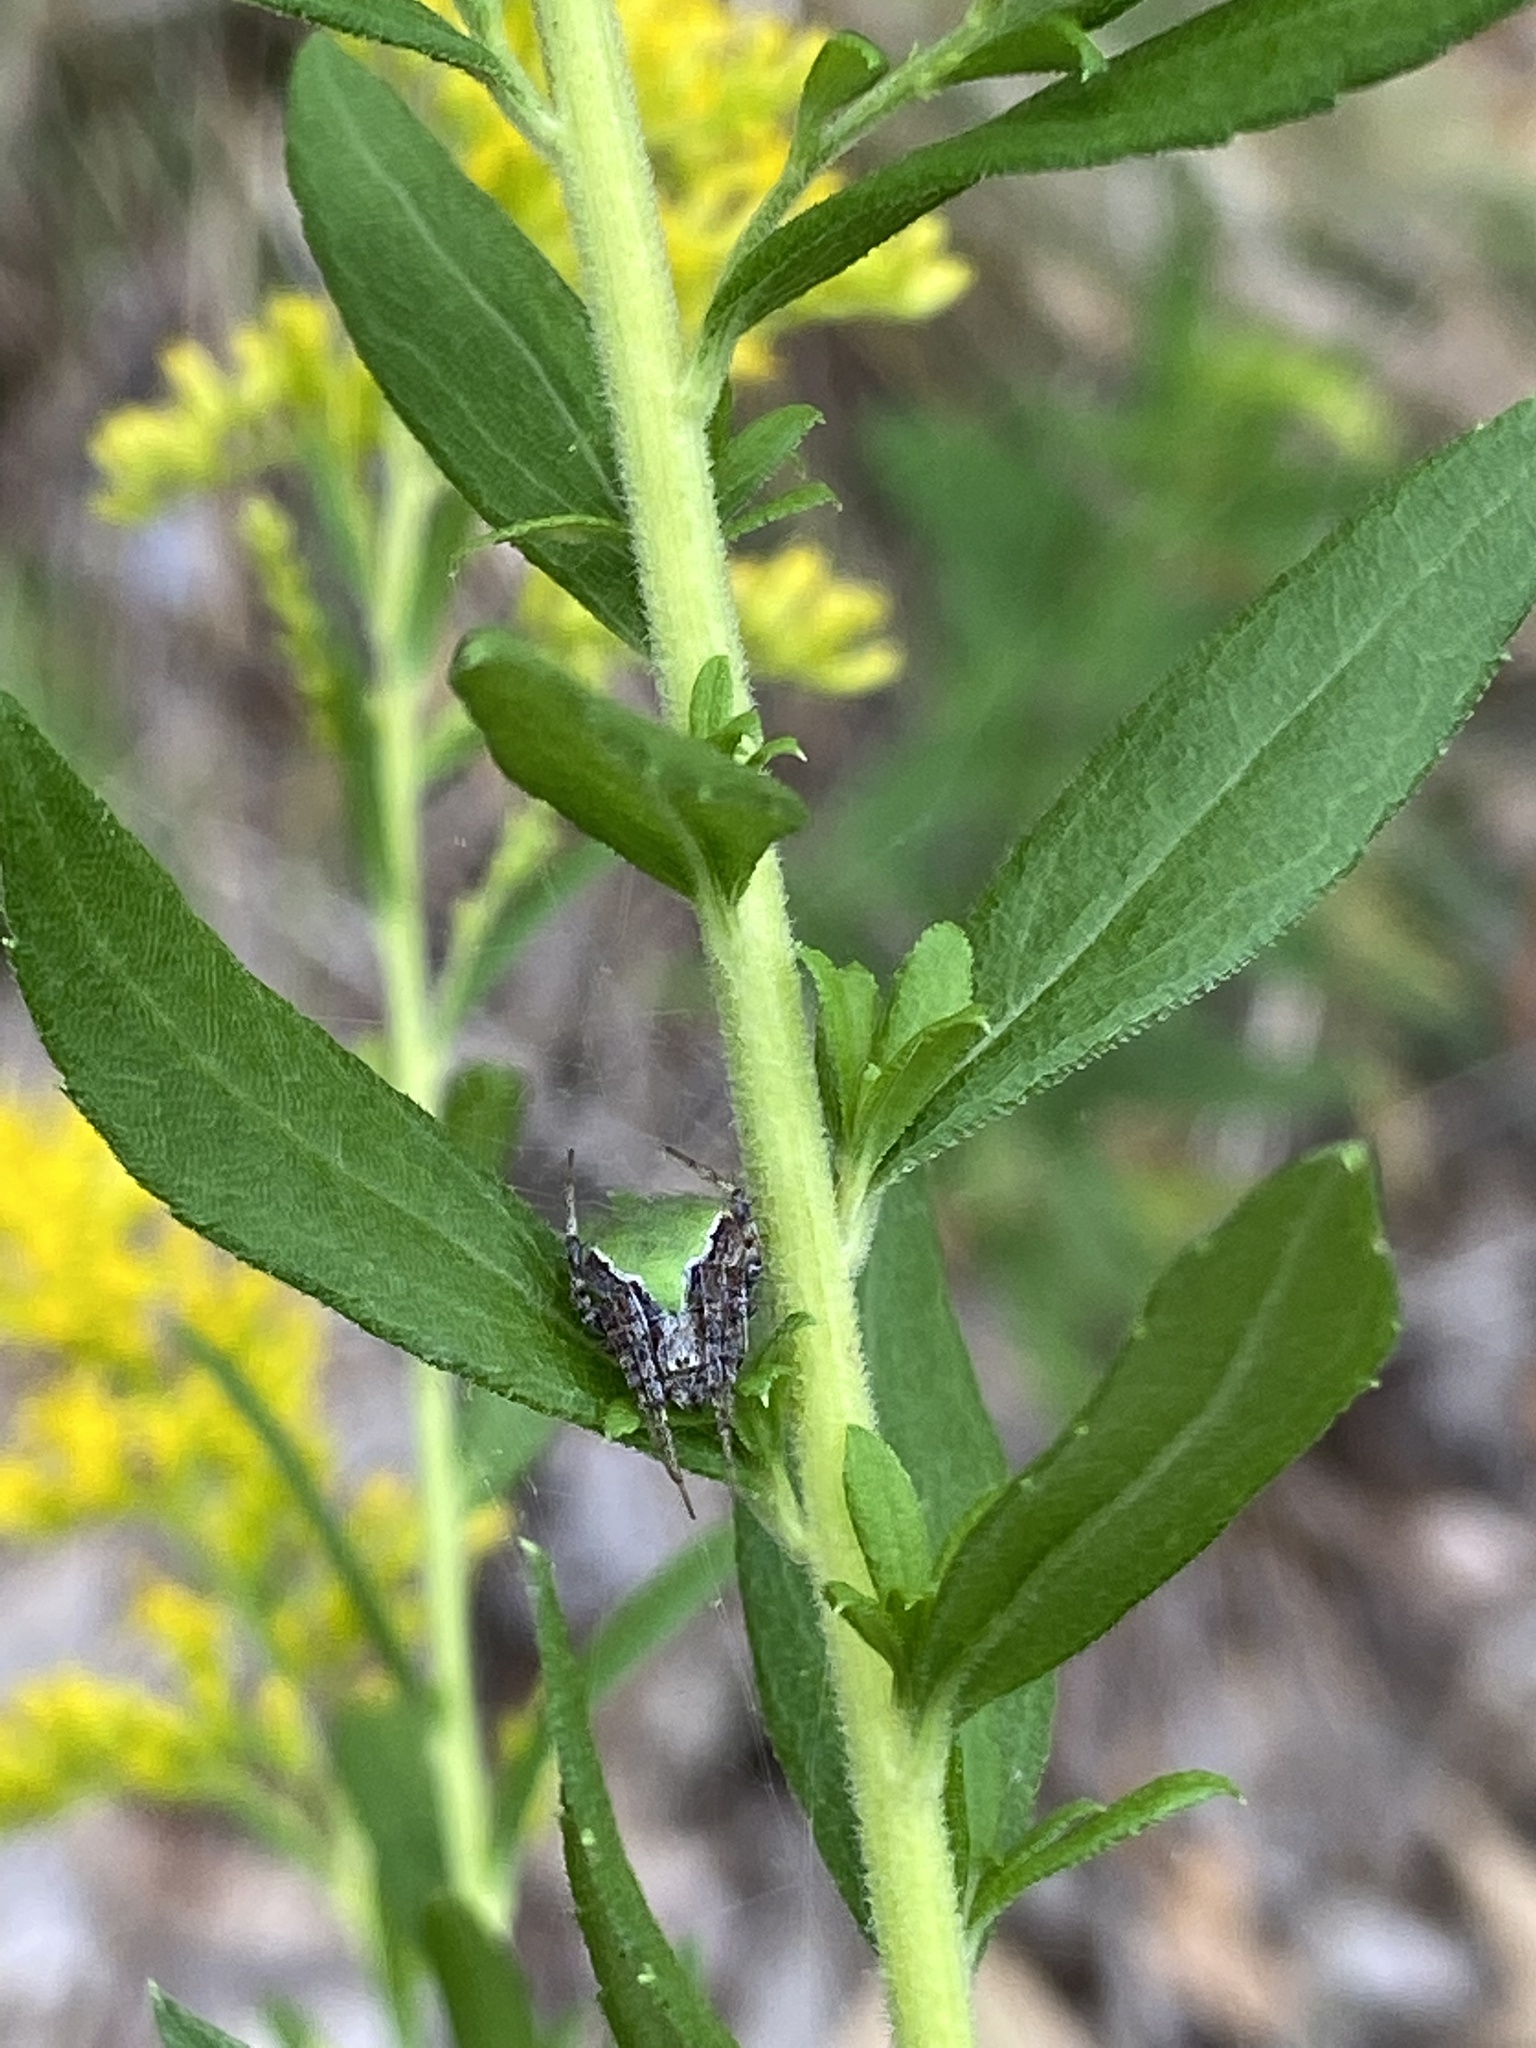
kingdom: Animalia
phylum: Arthropoda
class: Arachnida
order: Araneae
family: Araneidae
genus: Araneus
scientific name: Araneus detrimentosus
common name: Orb weavers
